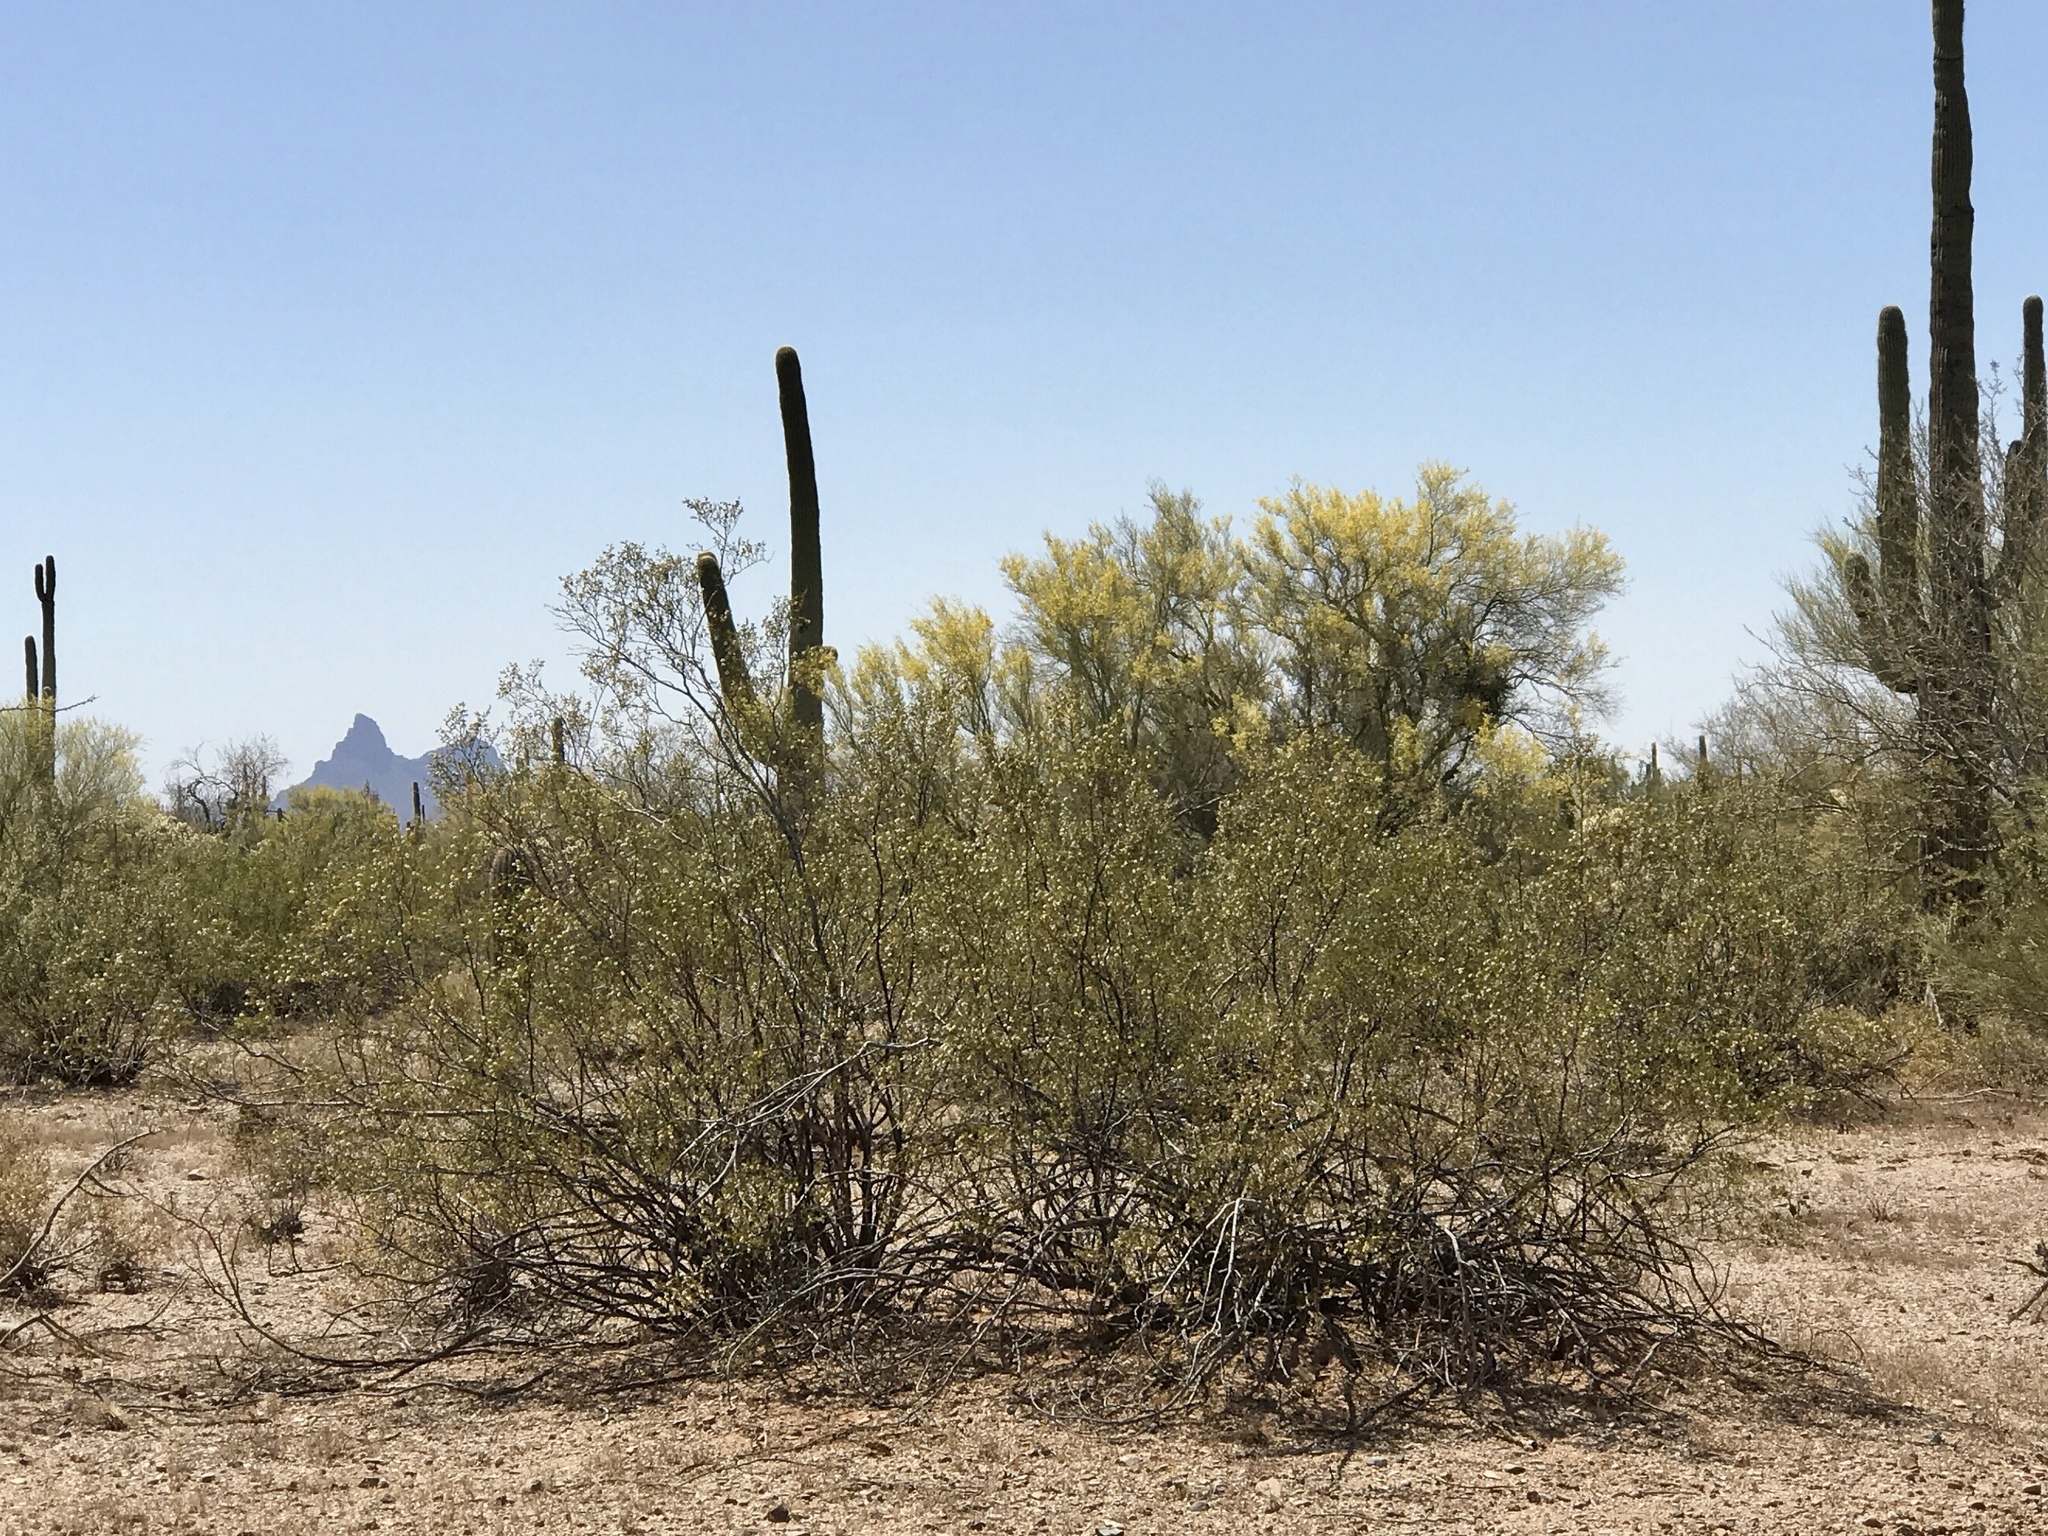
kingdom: Plantae
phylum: Tracheophyta
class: Magnoliopsida
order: Zygophyllales
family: Zygophyllaceae
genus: Larrea
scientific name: Larrea tridentata
